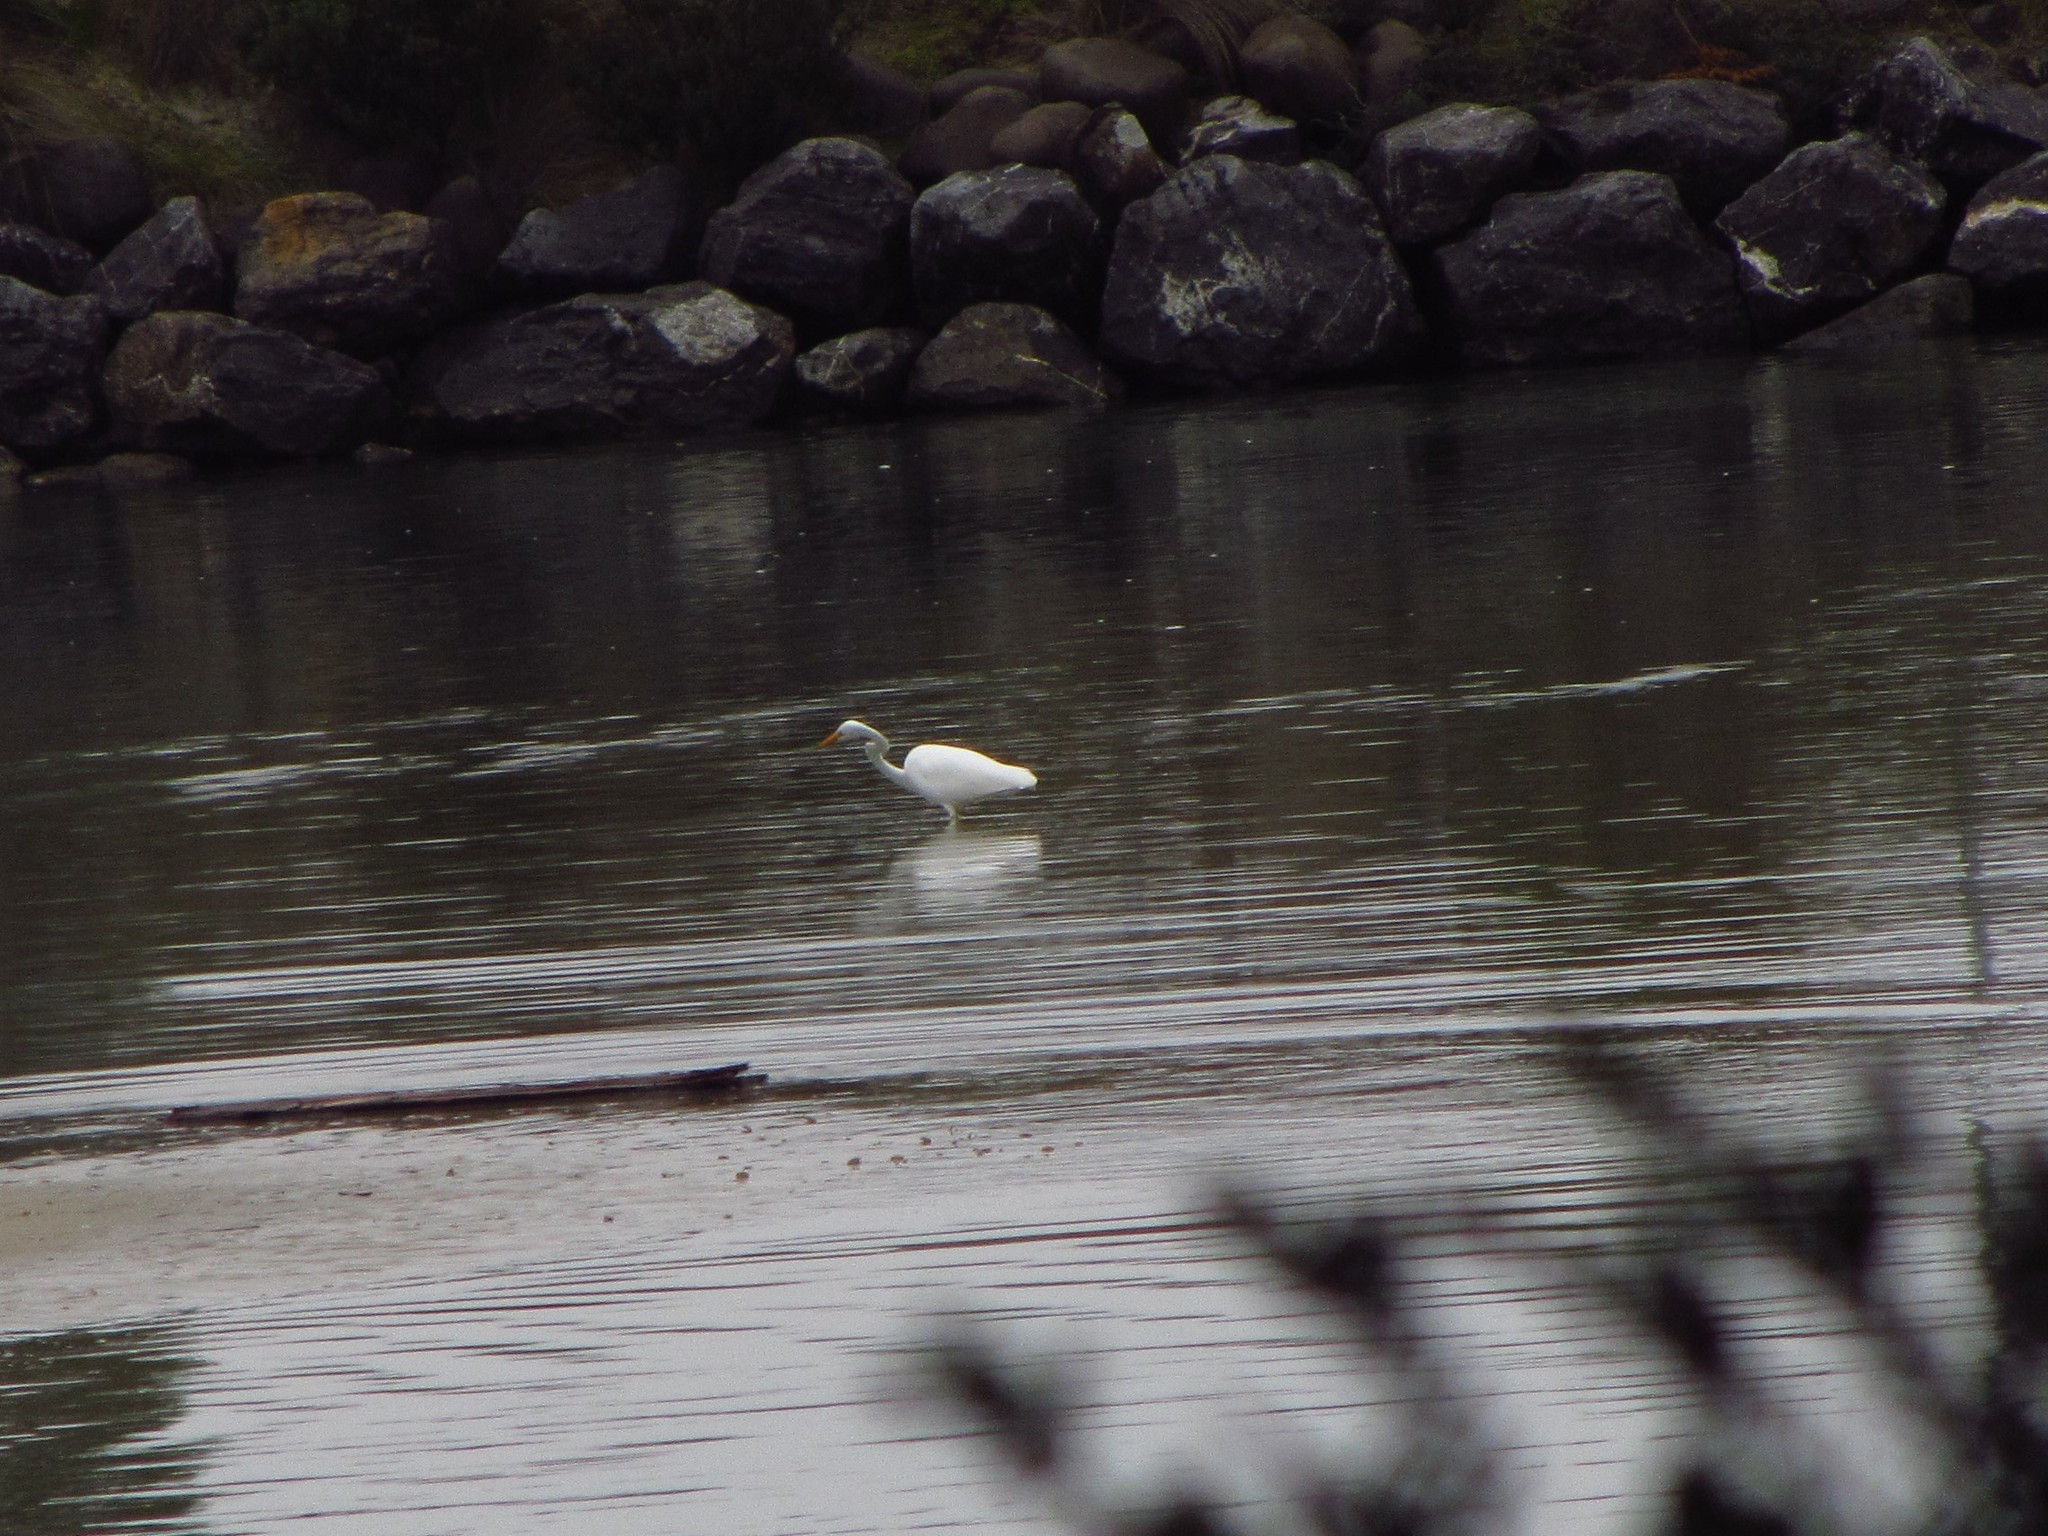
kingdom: Animalia
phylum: Chordata
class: Aves
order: Pelecaniformes
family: Ardeidae
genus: Ardea
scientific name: Ardea modesta
